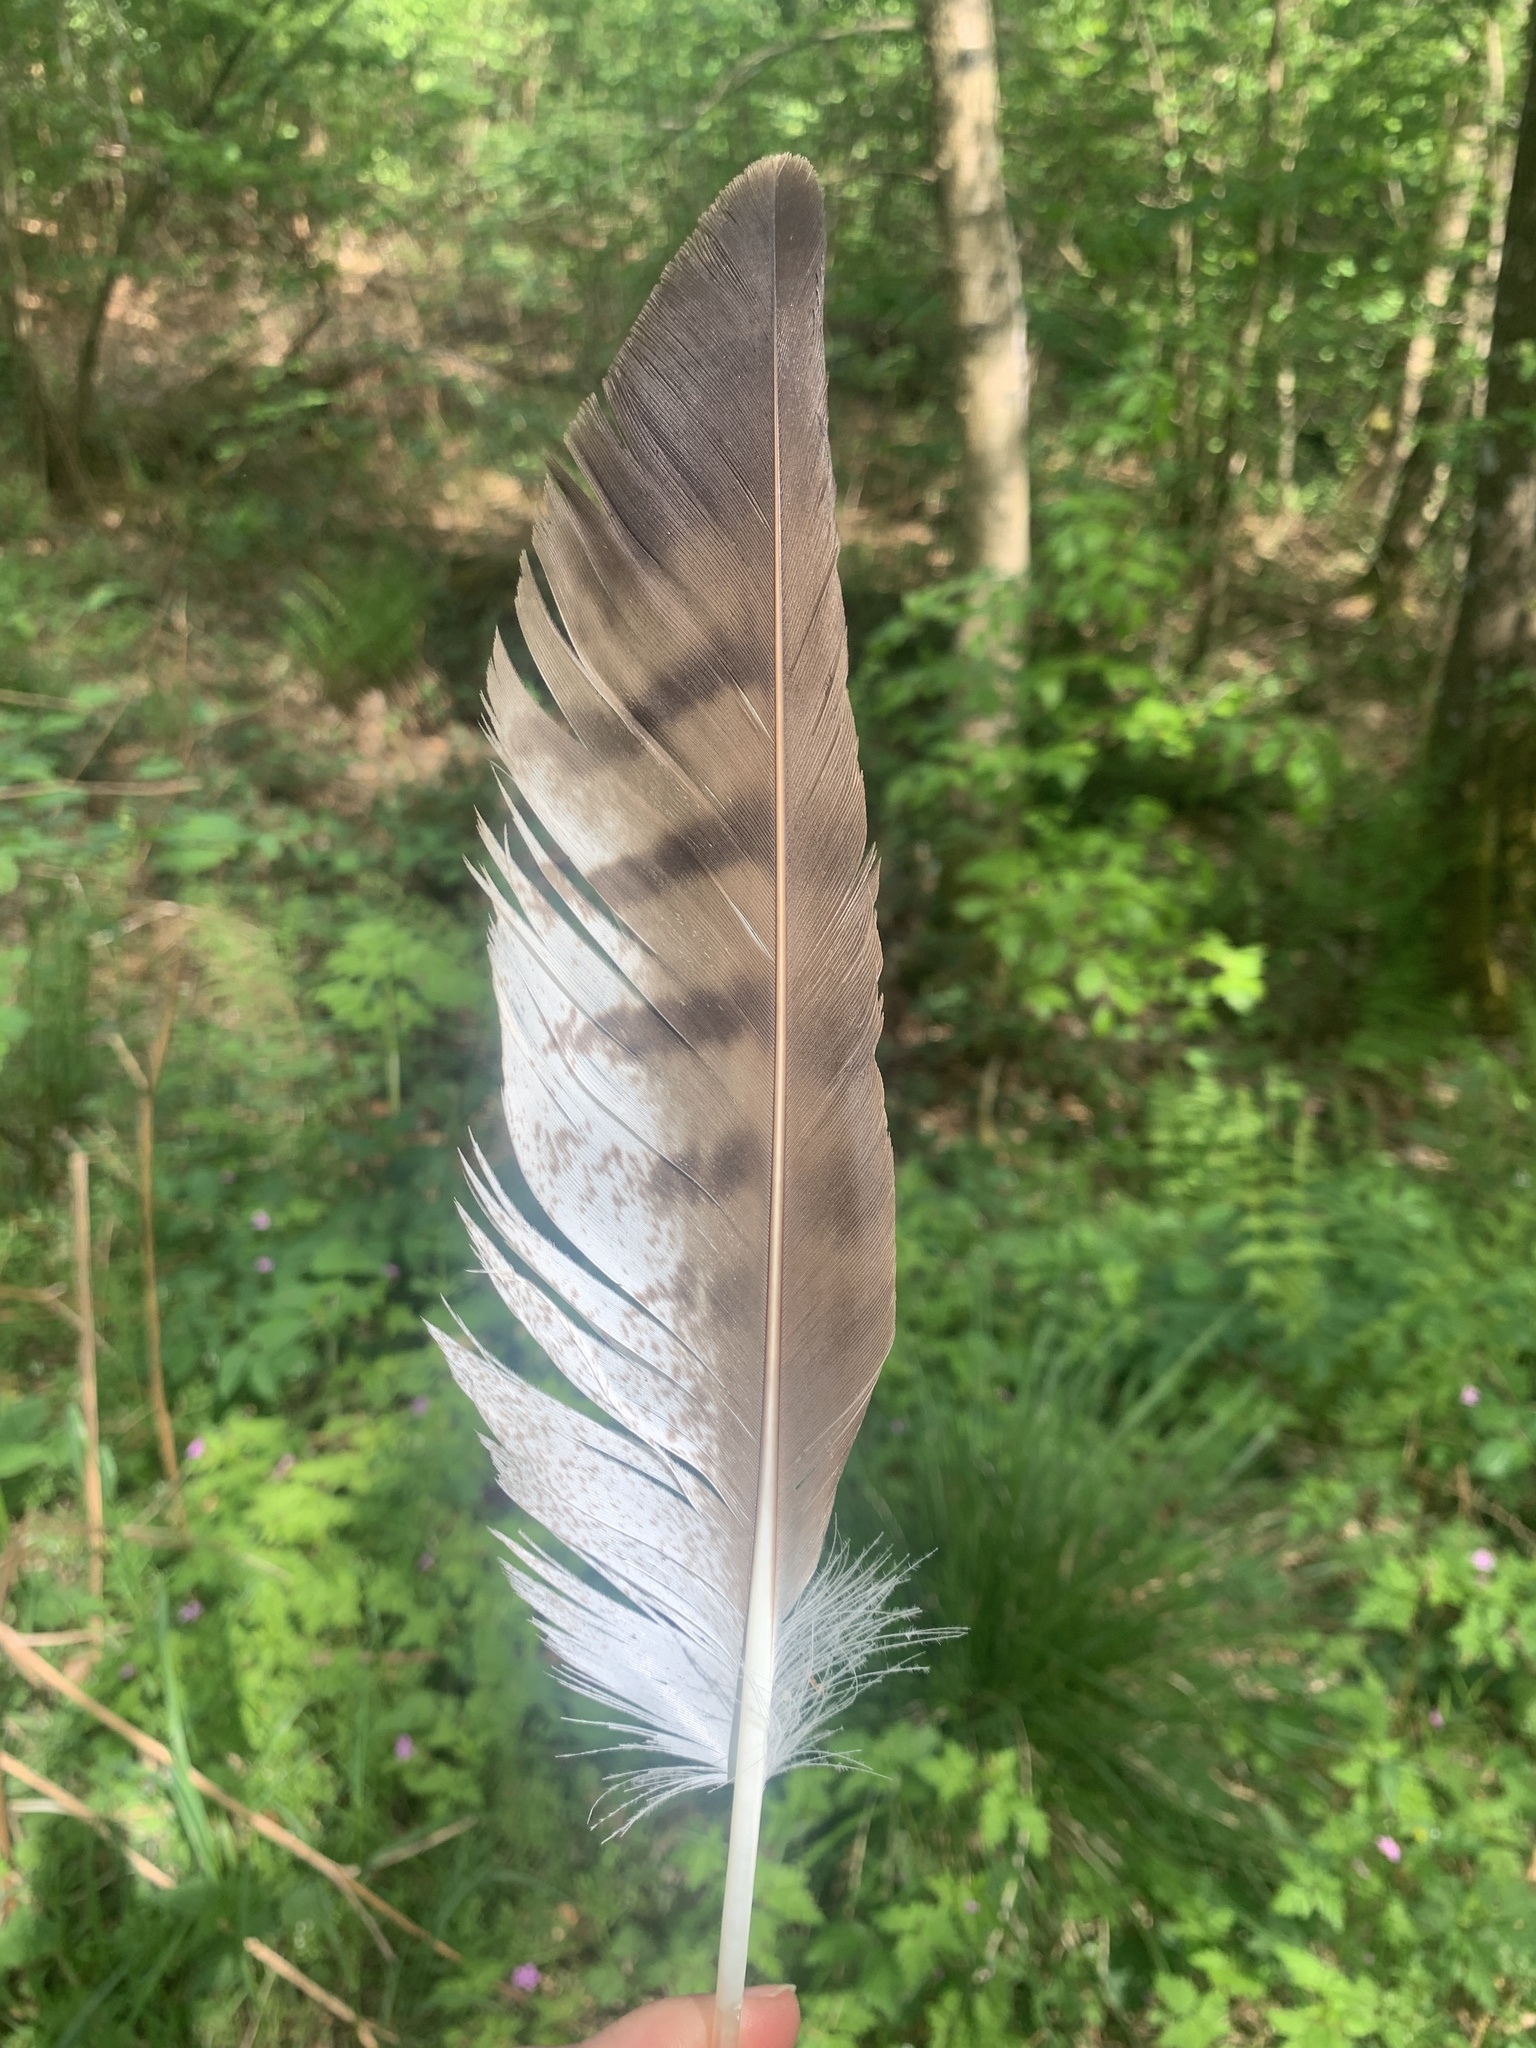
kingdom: Animalia
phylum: Chordata
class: Aves
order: Accipitriformes
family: Accipitridae
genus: Buteo
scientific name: Buteo buteo
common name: Common buzzard
